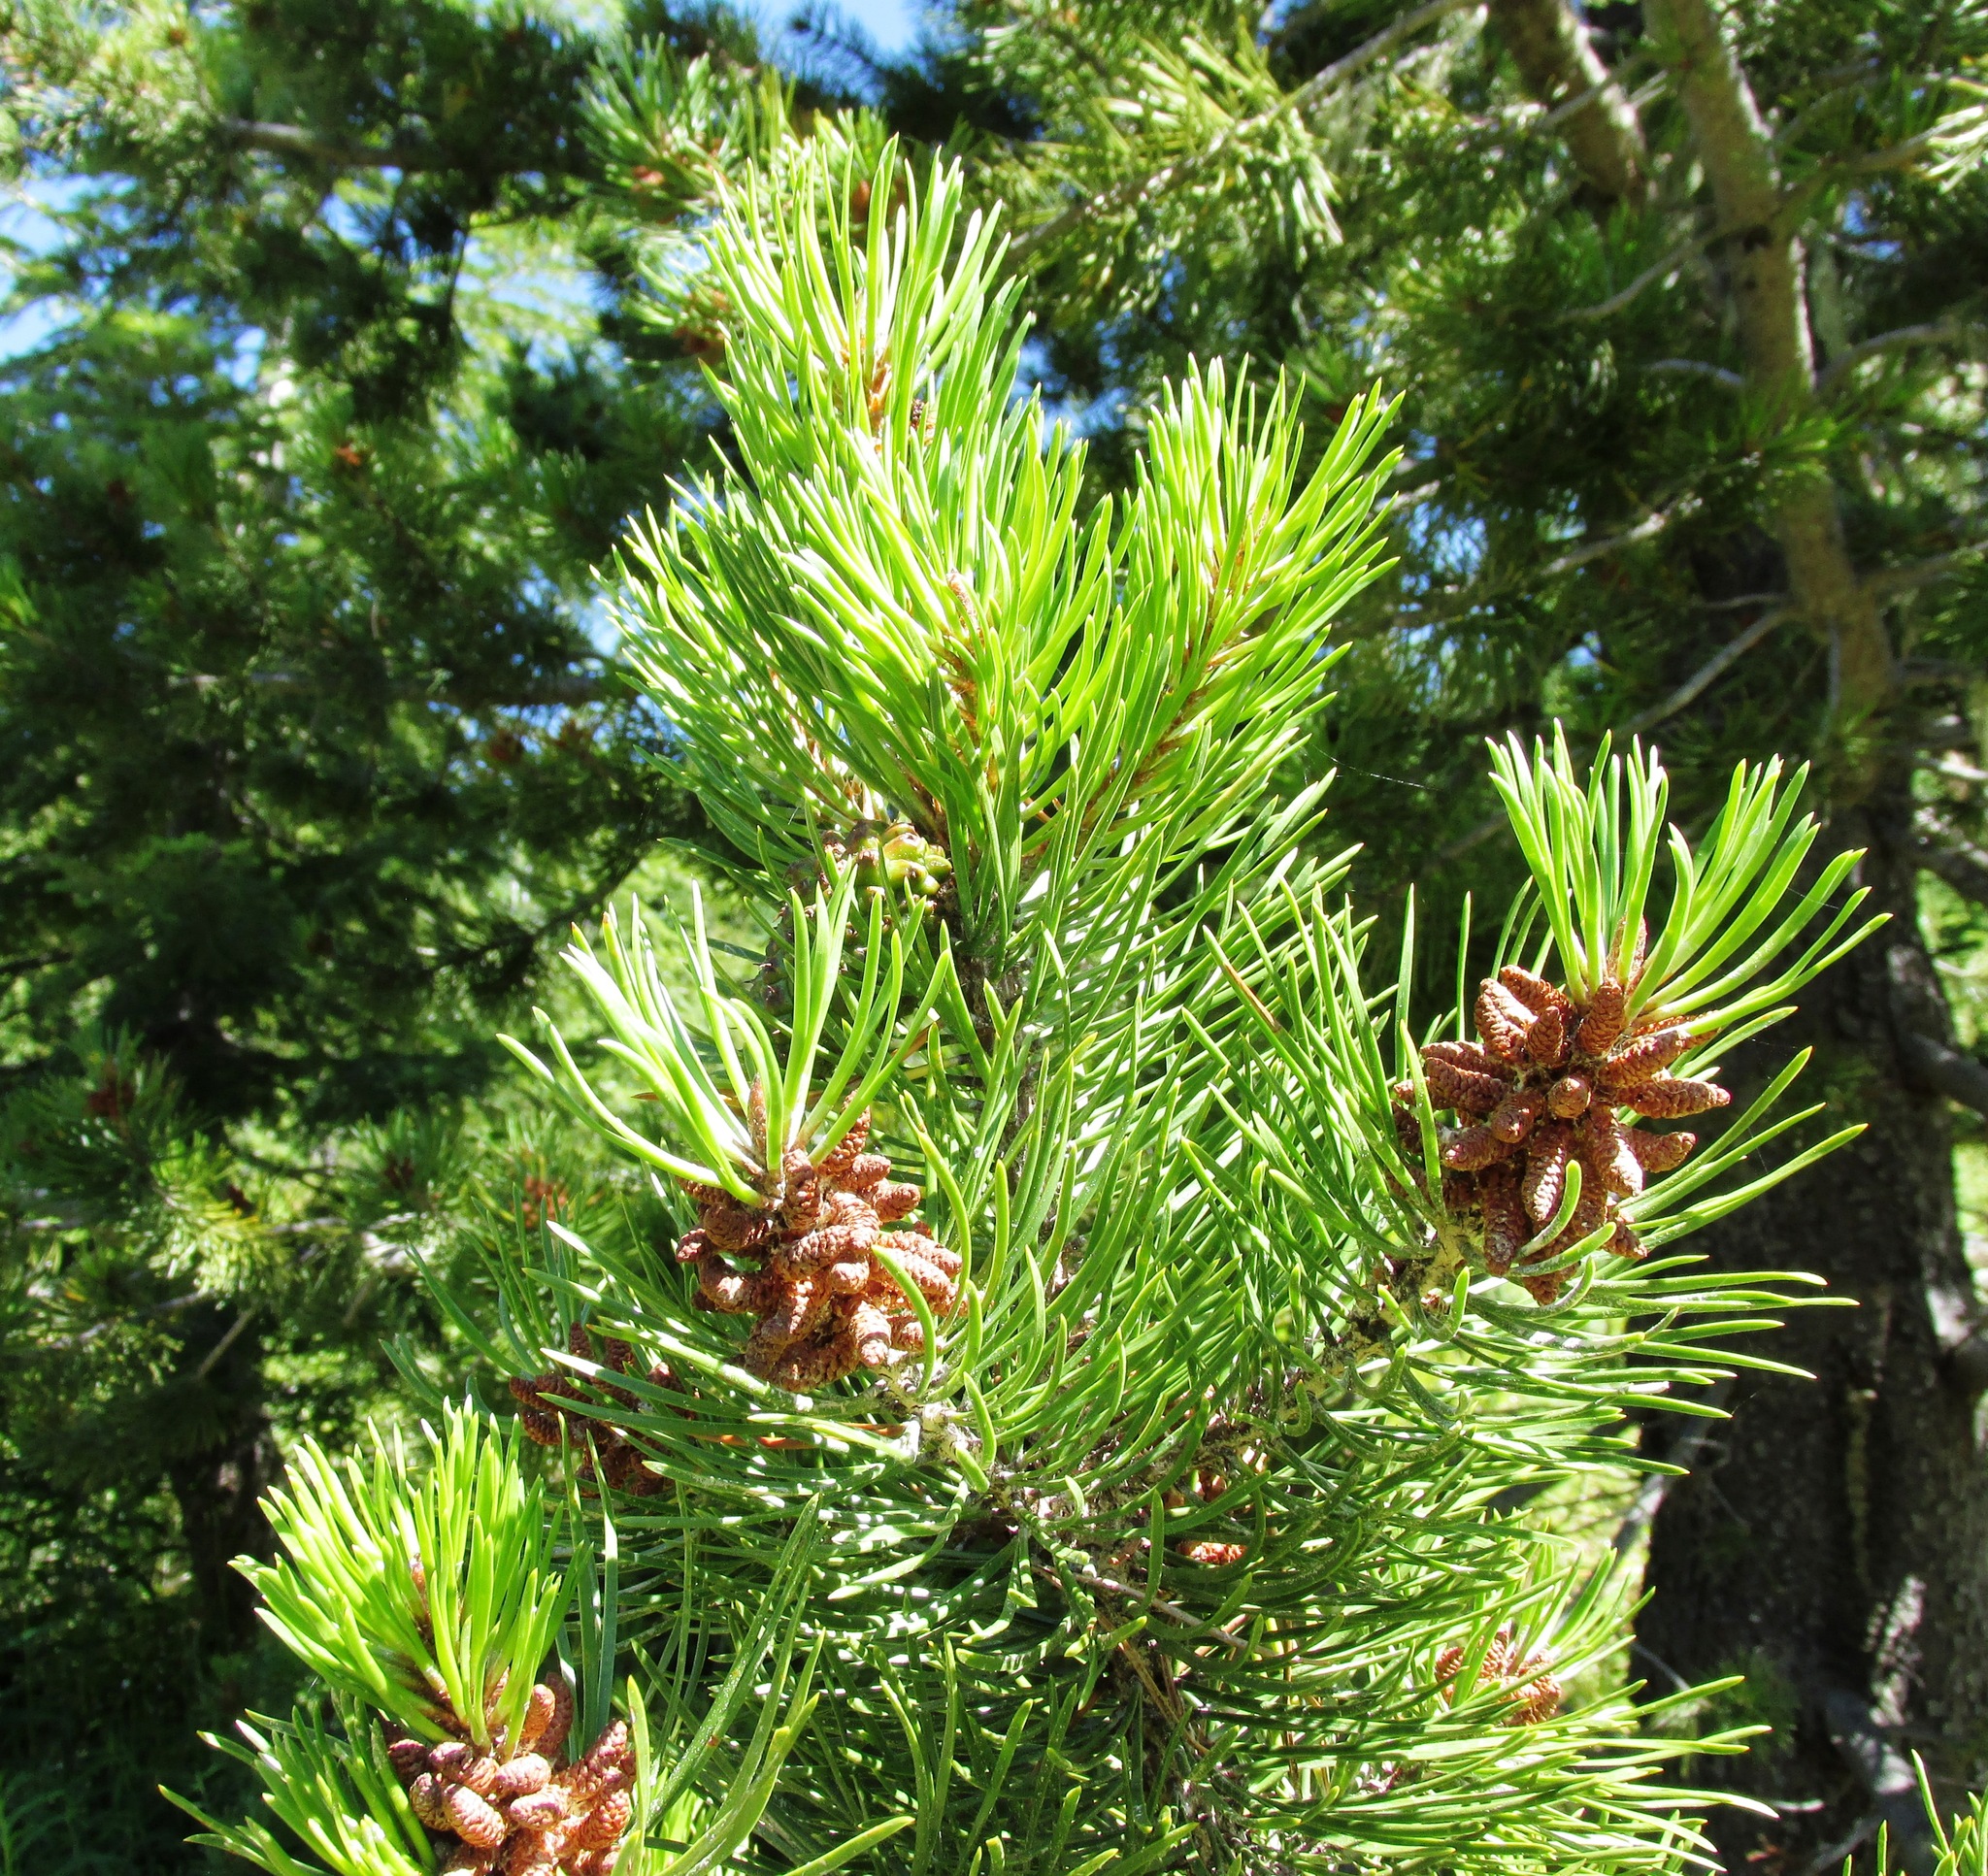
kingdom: Plantae
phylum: Tracheophyta
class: Pinopsida
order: Pinales
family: Pinaceae
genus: Pinus
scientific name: Pinus contorta
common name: Lodgepole pine
